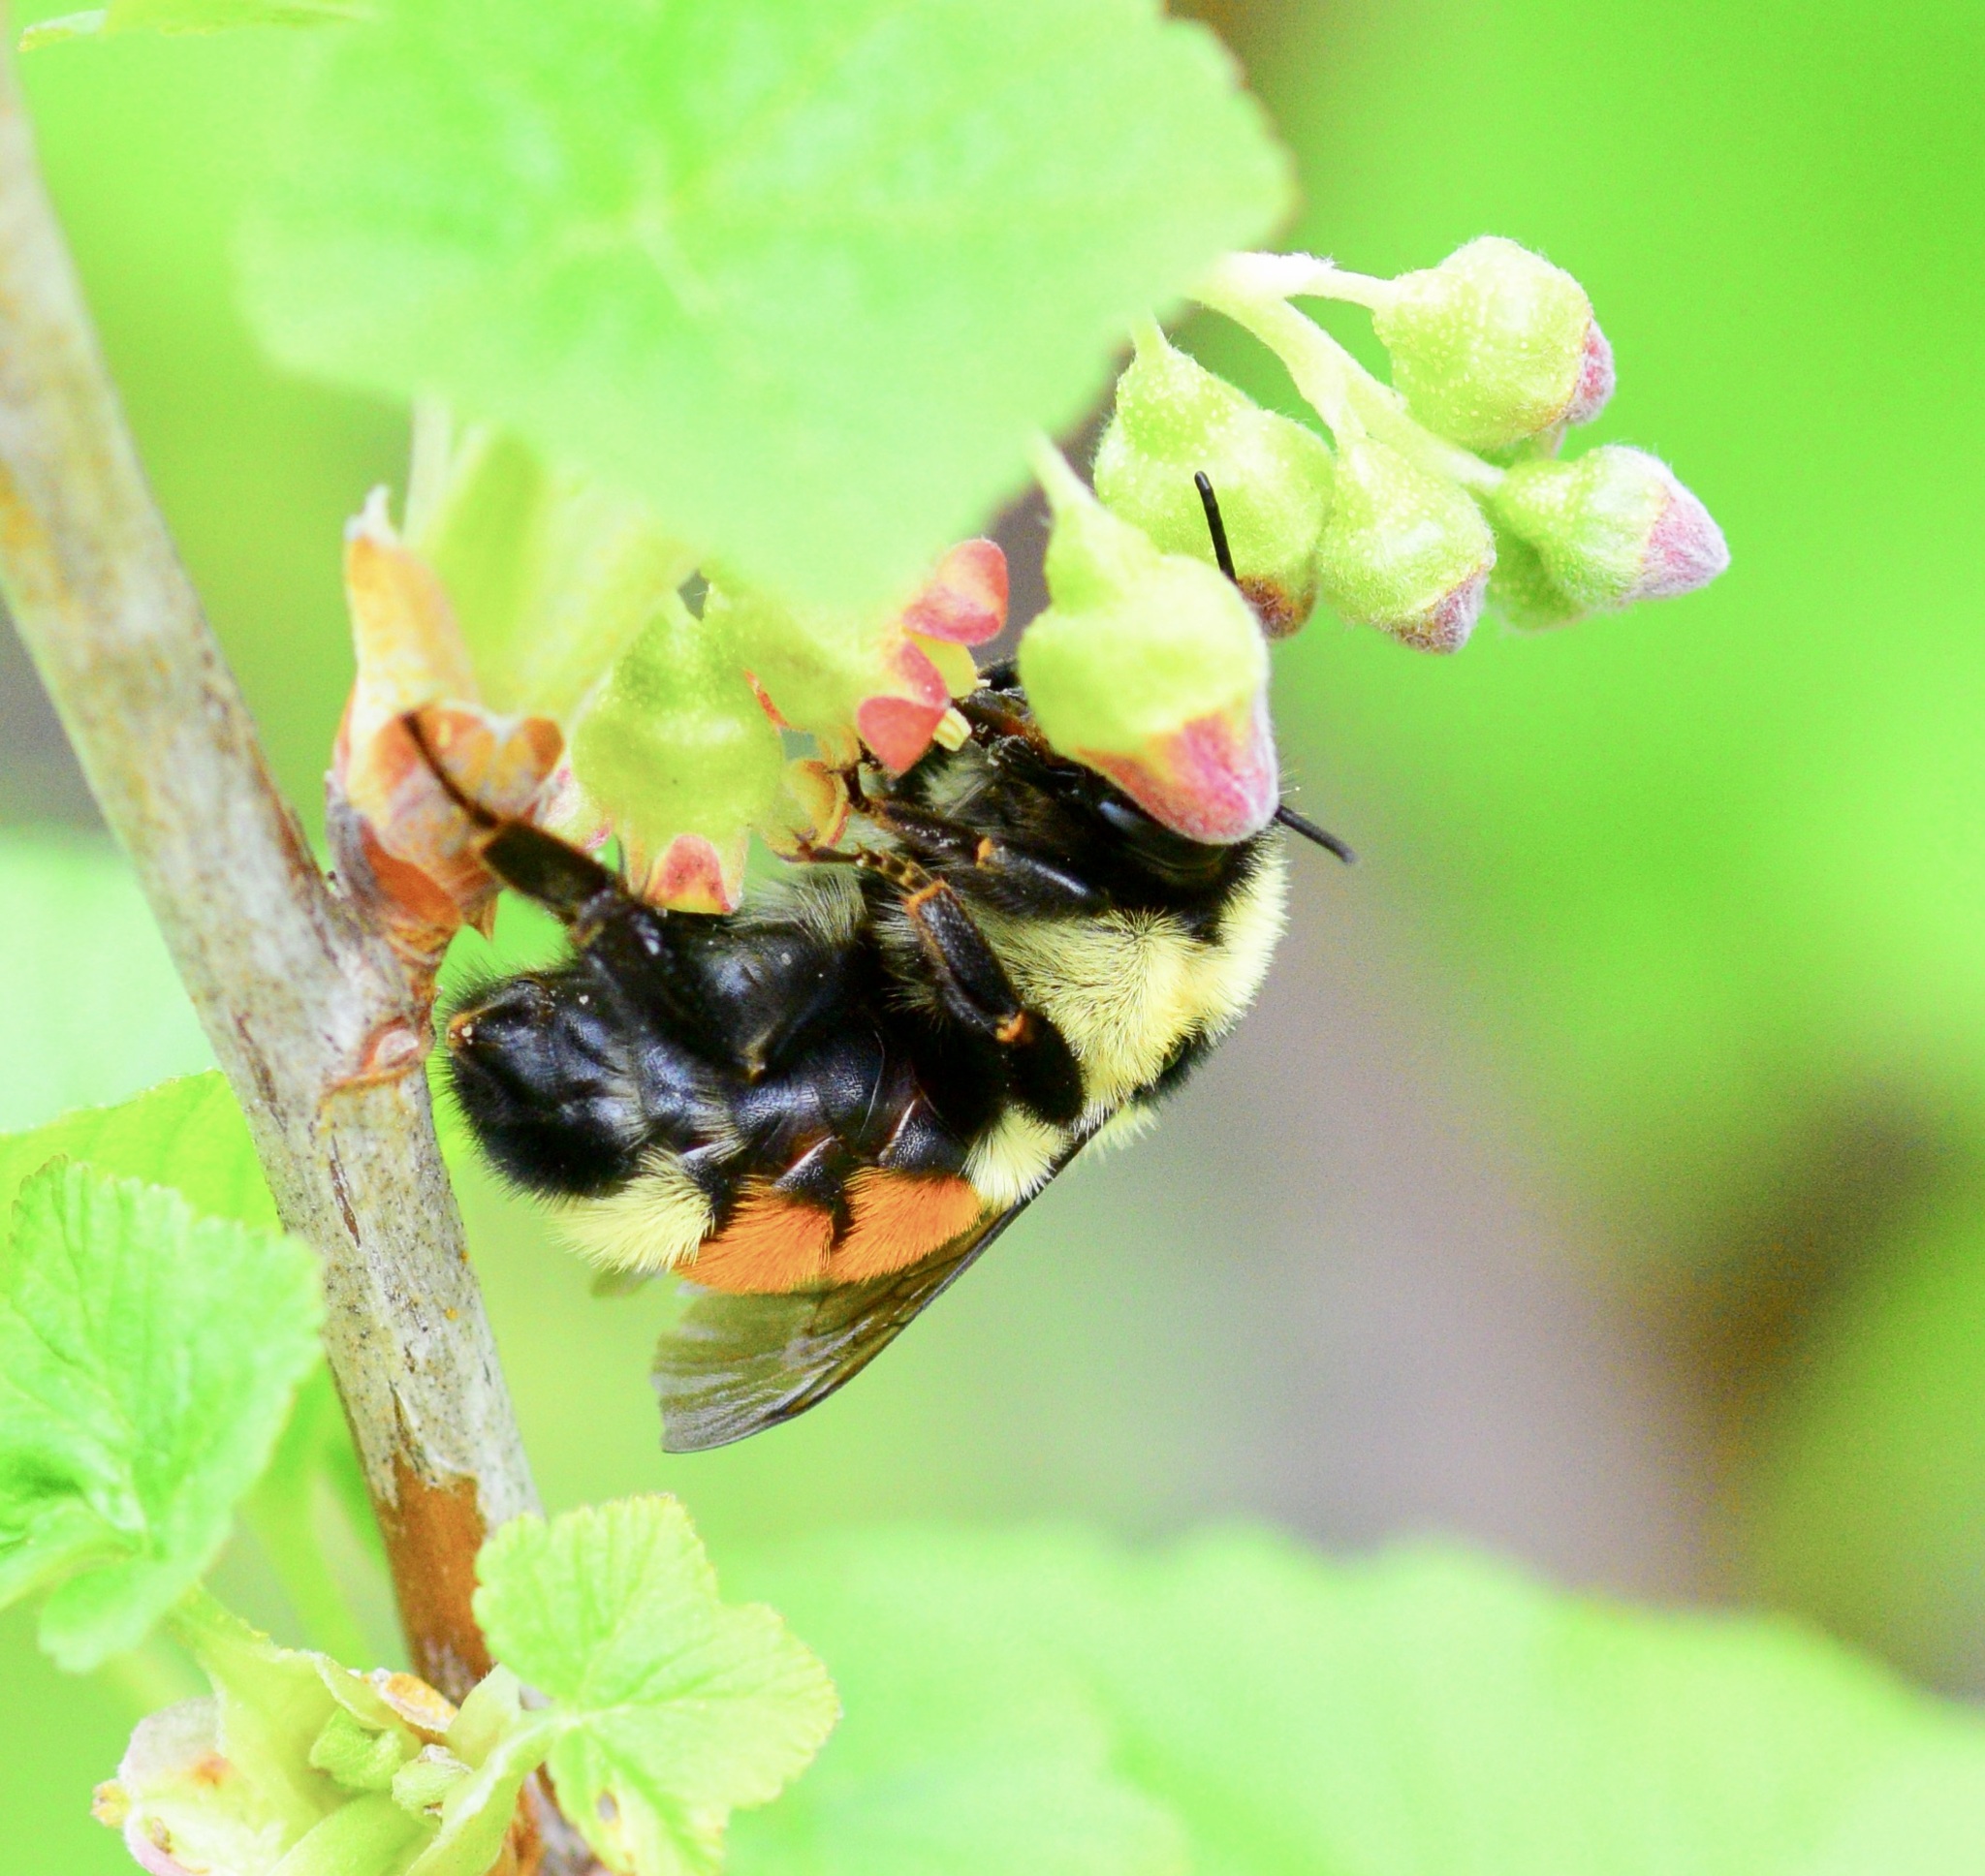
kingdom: Animalia
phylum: Arthropoda
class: Insecta
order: Hymenoptera
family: Apidae
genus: Bombus
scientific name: Bombus ternarius
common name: Tri-colored bumble bee
